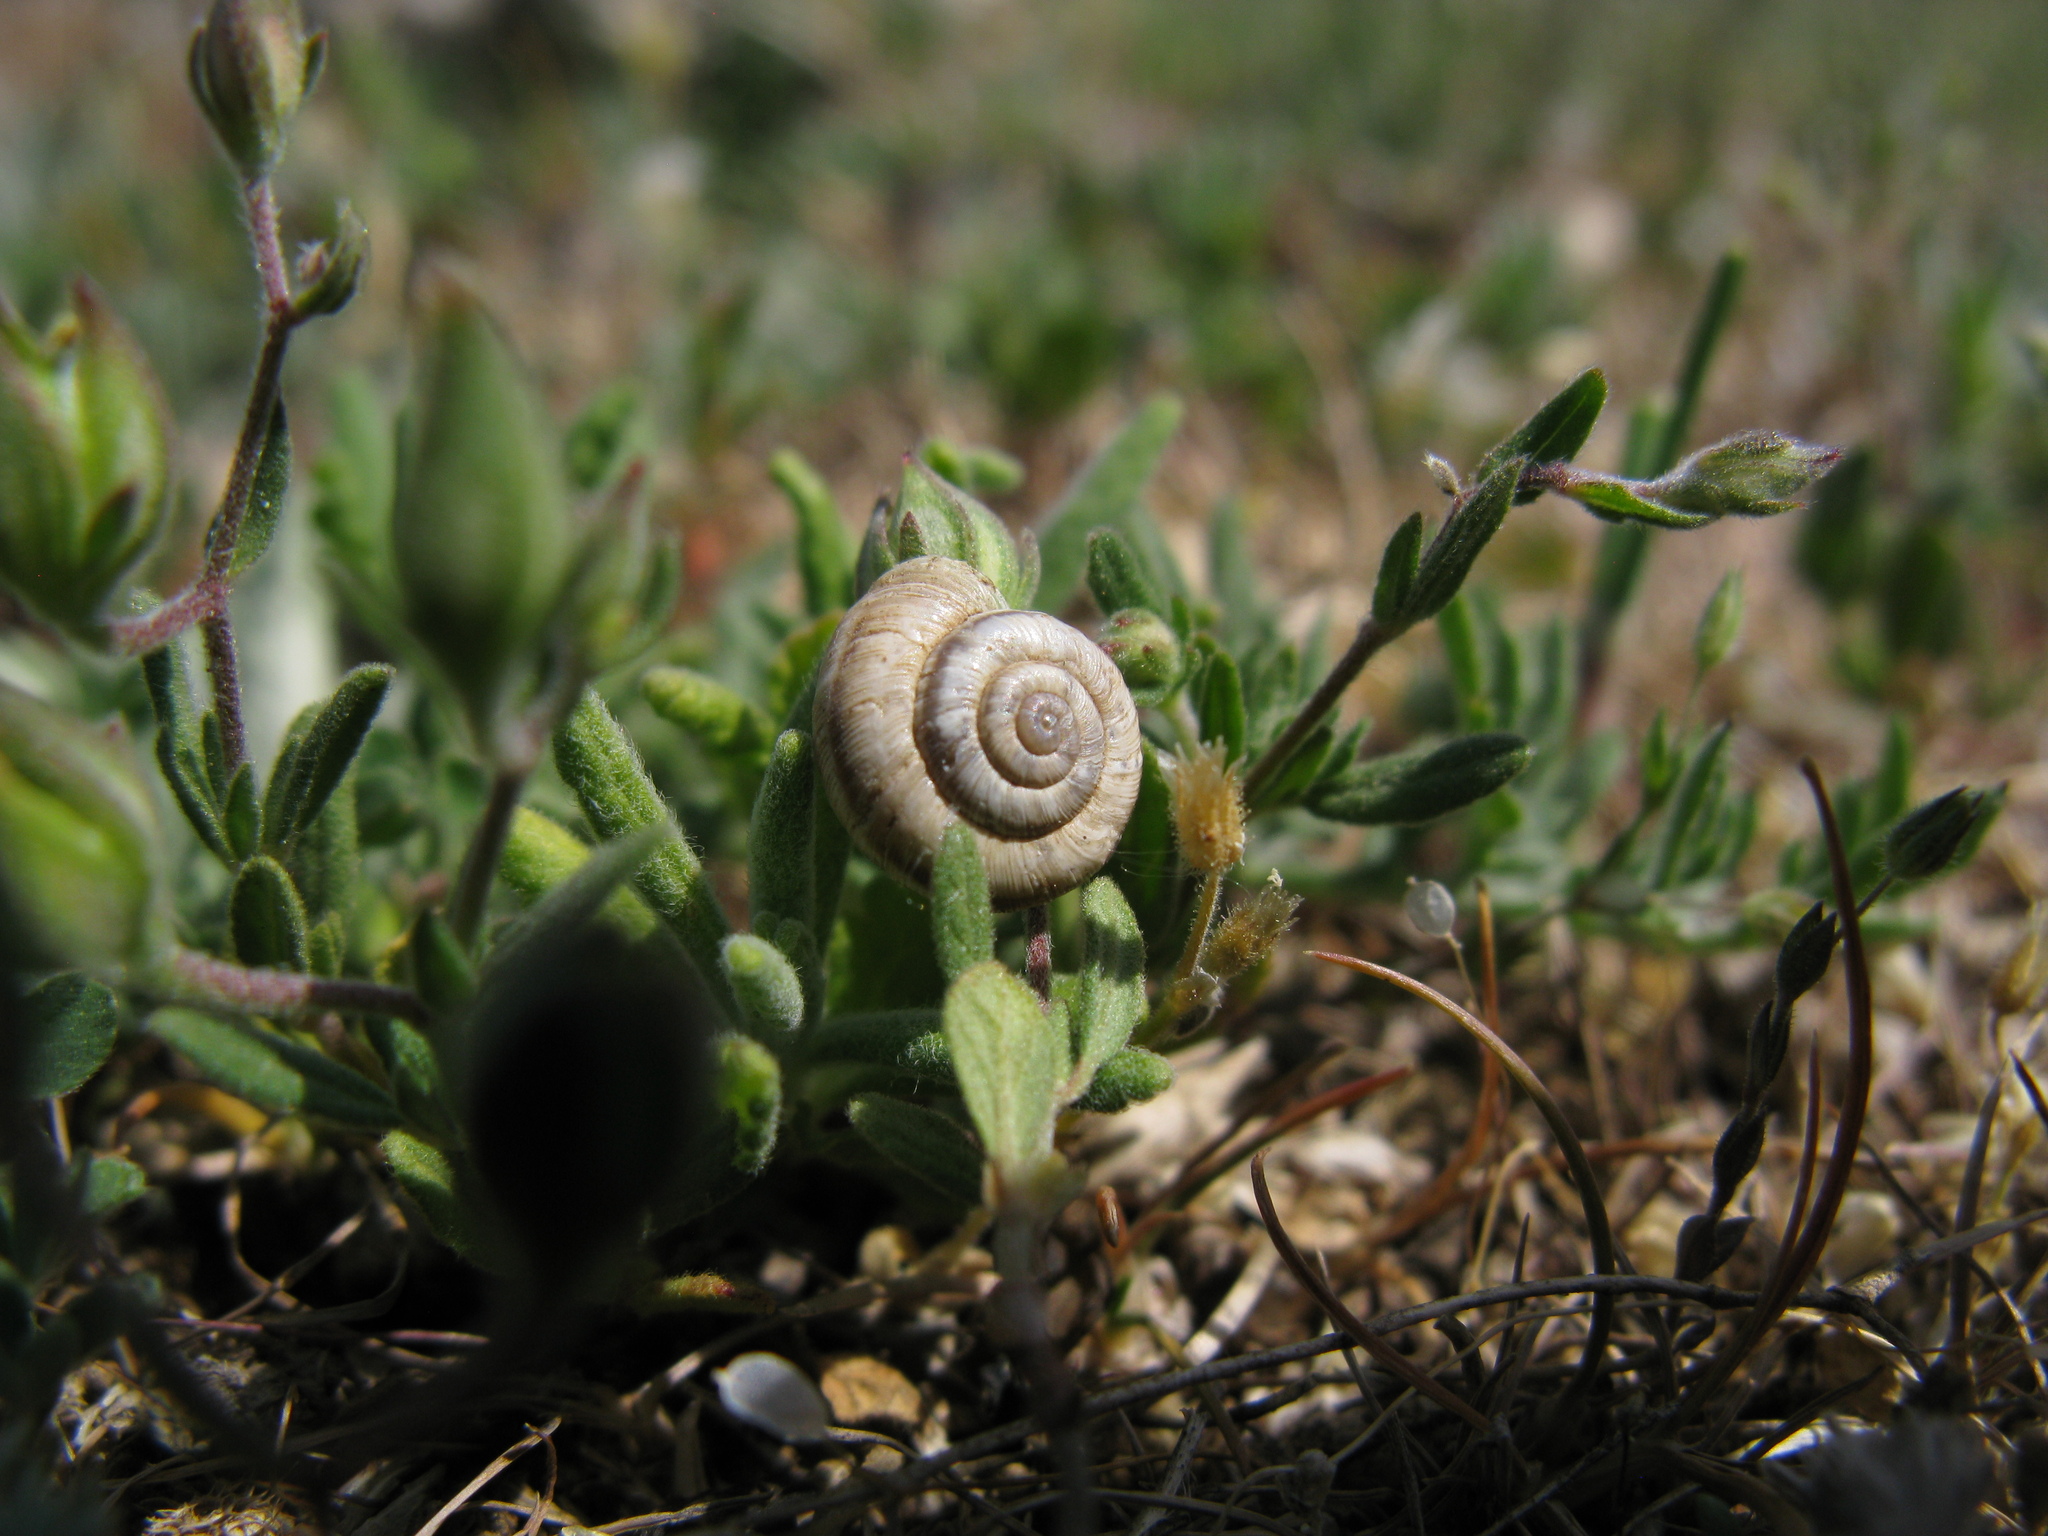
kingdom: Plantae
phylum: Tracheophyta
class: Magnoliopsida
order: Brassicales
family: Brassicaceae
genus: Draba
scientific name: Draba verna
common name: Spring draba
